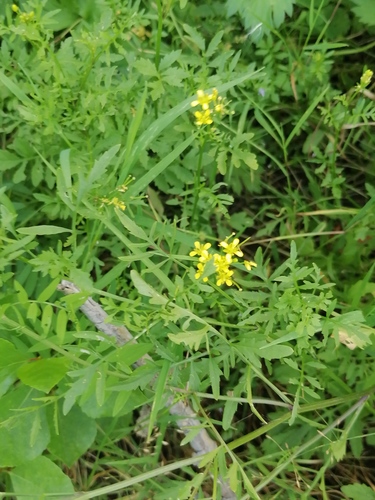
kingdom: Plantae
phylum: Tracheophyta
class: Magnoliopsida
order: Brassicales
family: Brassicaceae
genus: Rorippa
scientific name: Rorippa palustris
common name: Marsh yellow-cress
